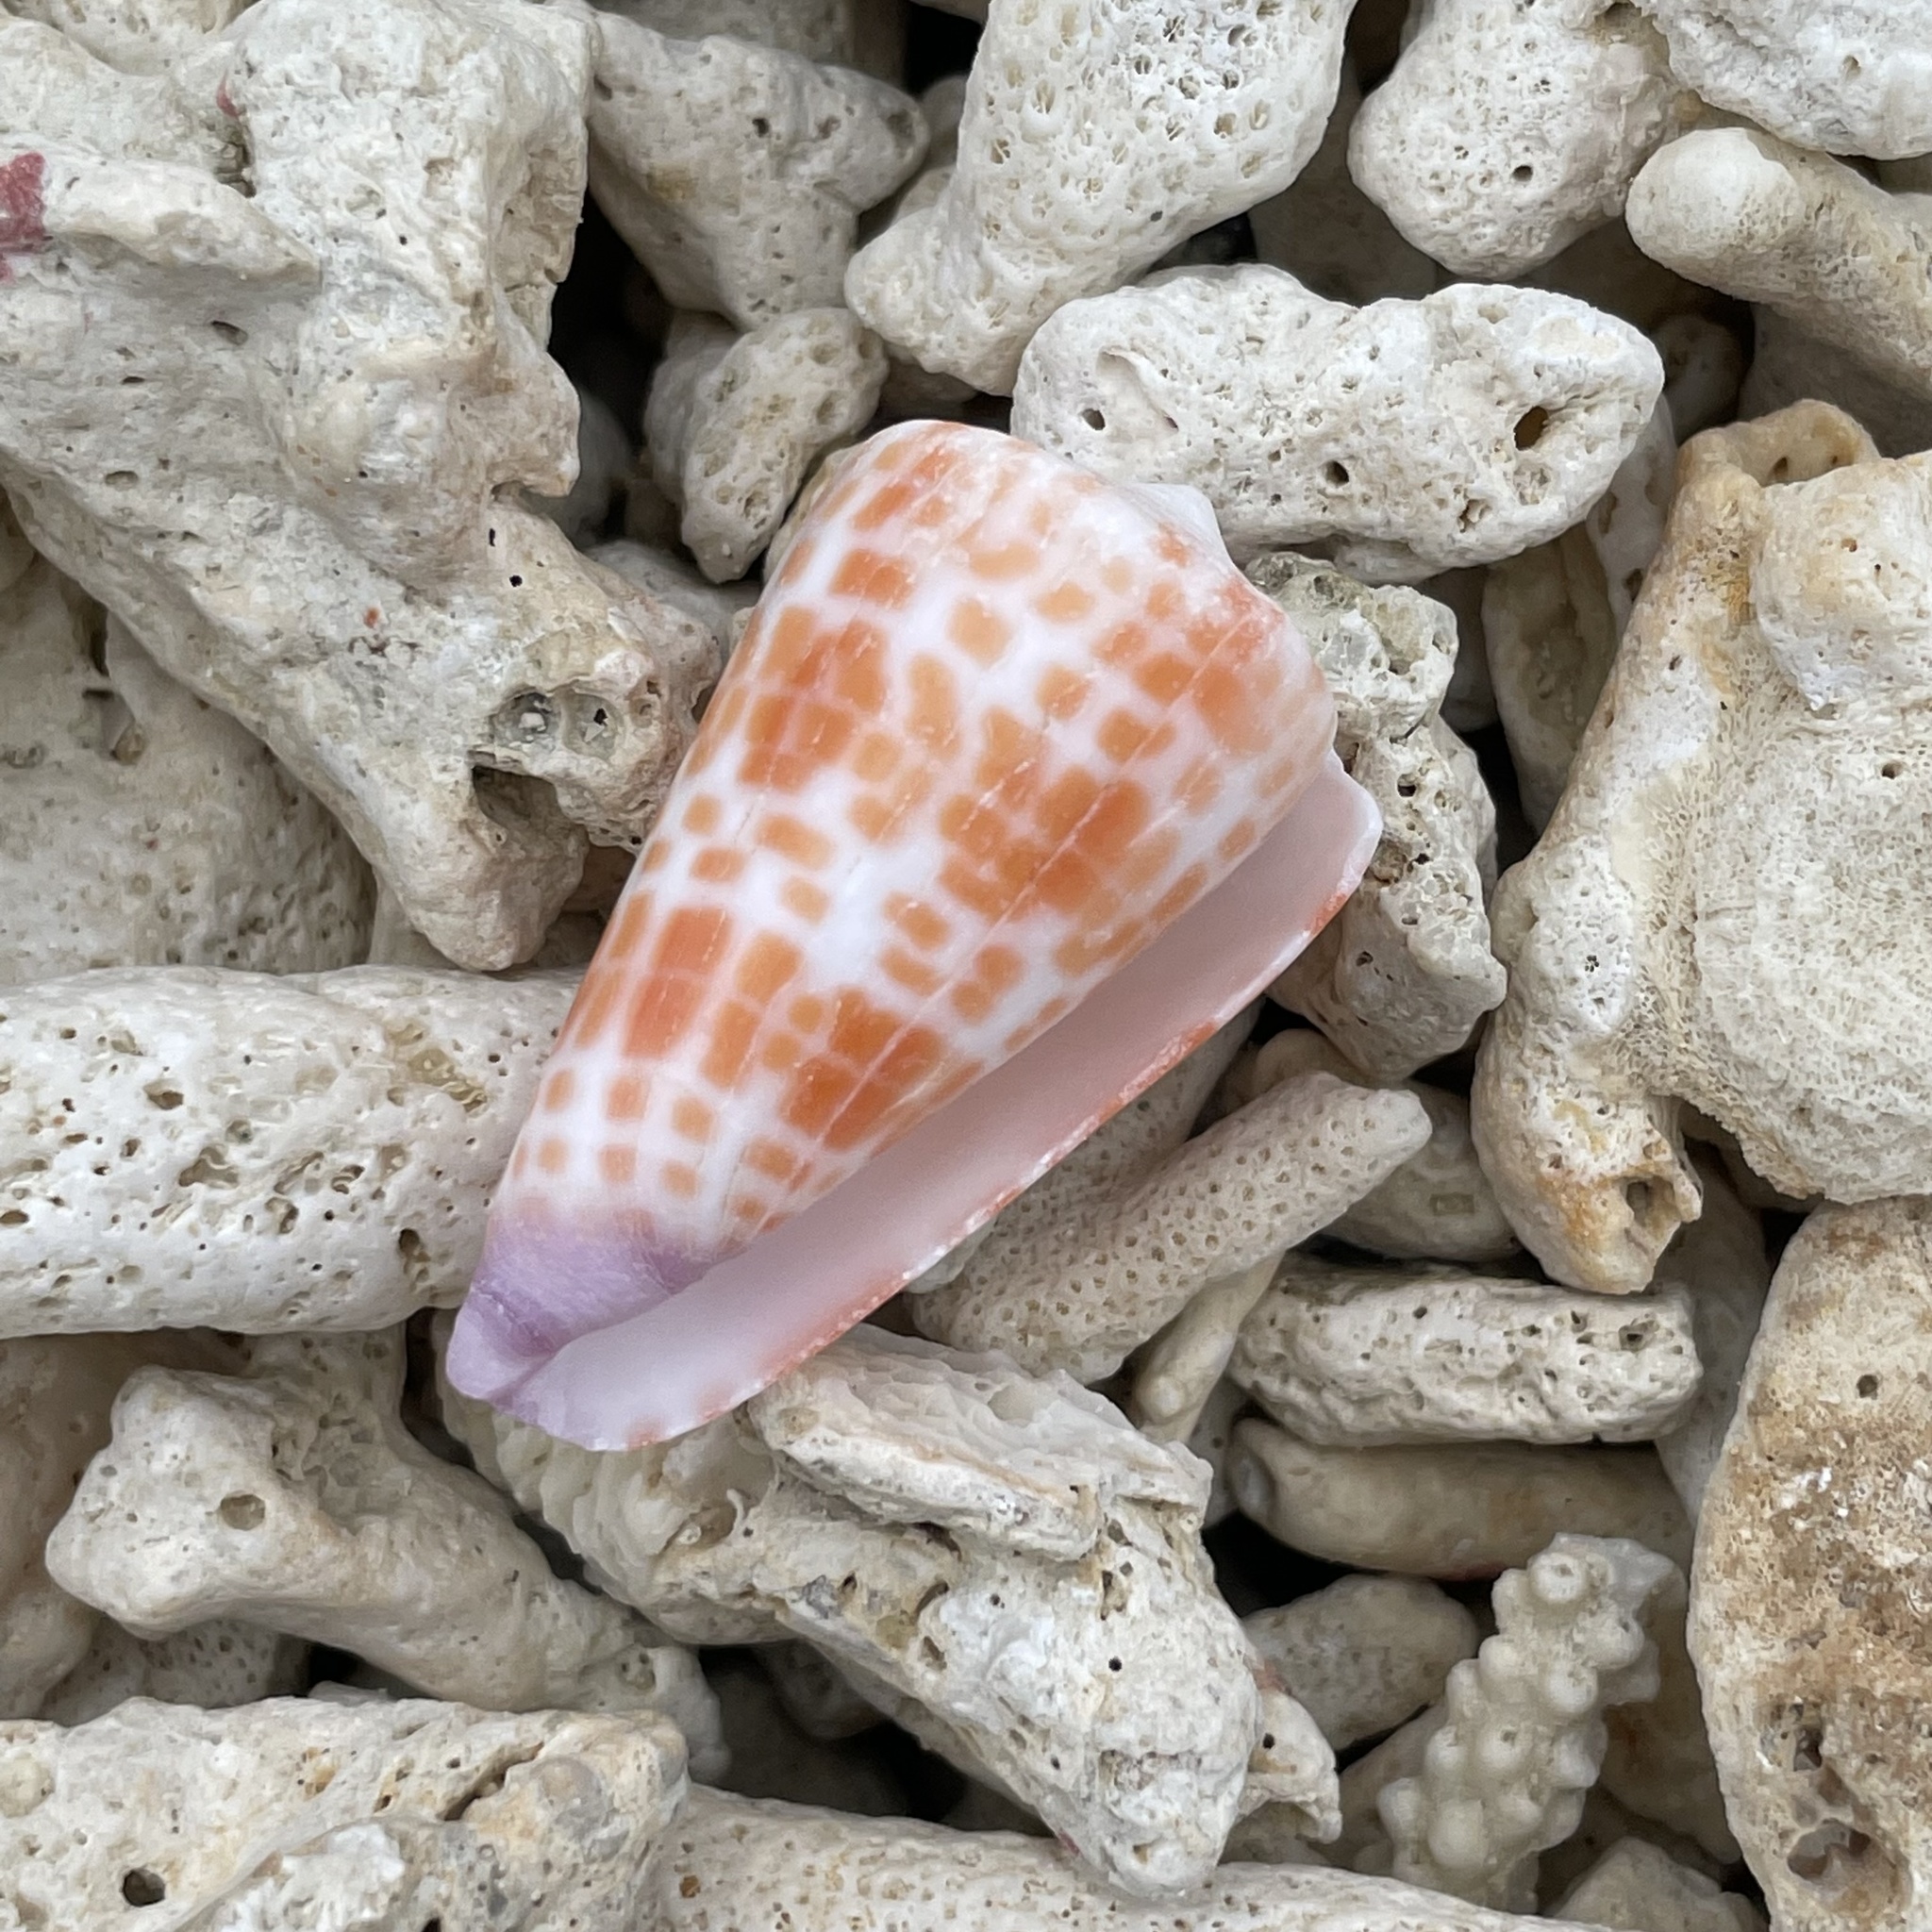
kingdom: Animalia
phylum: Mollusca
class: Gastropoda
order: Neogastropoda
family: Conidae
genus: Conus
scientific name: Conus tessulatus
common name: Tessellate cone
